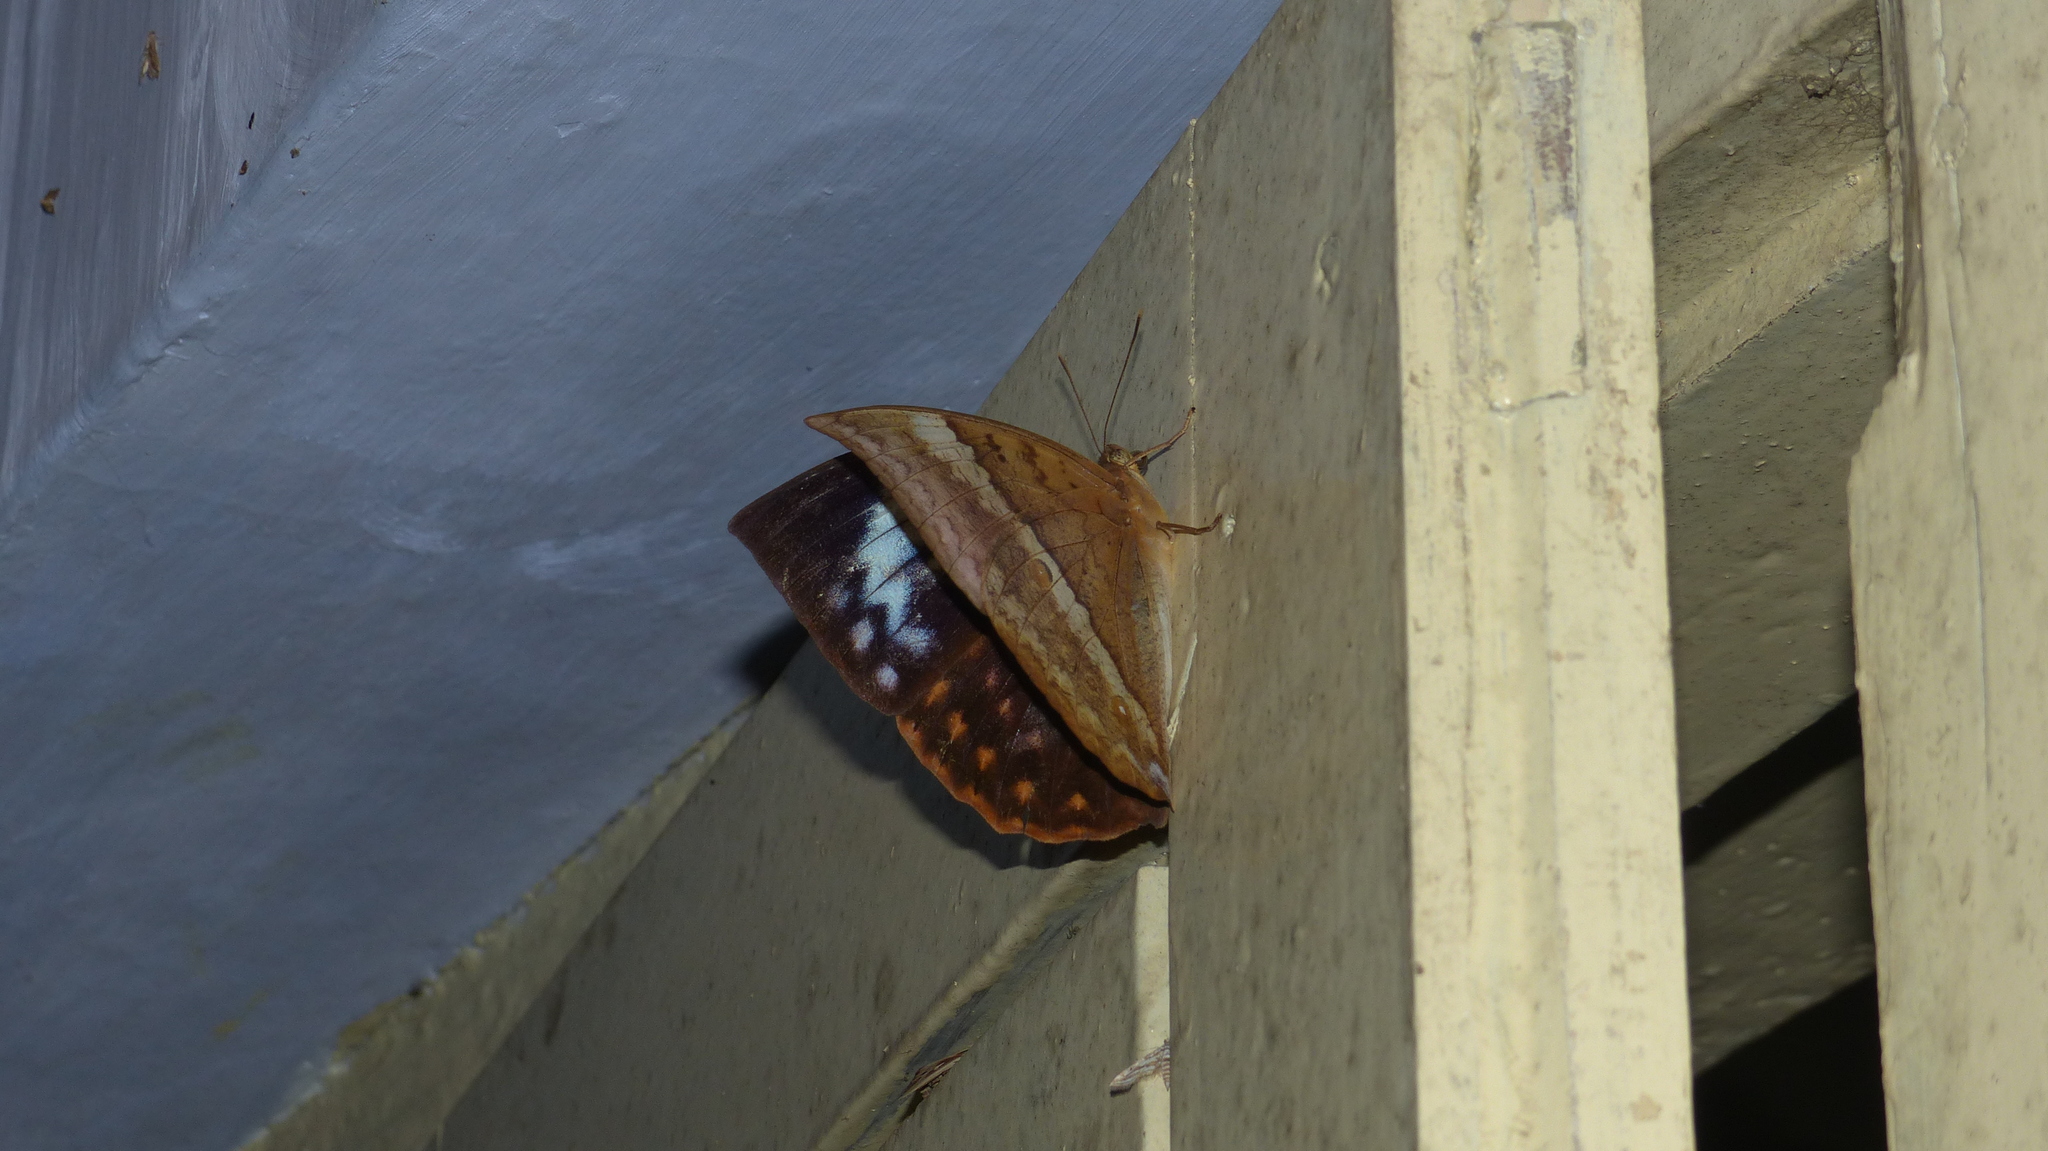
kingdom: Animalia
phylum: Arthropoda
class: Insecta
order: Lepidoptera
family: Nymphalidae
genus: Discophora
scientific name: Discophora lepida
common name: Southern duffer
